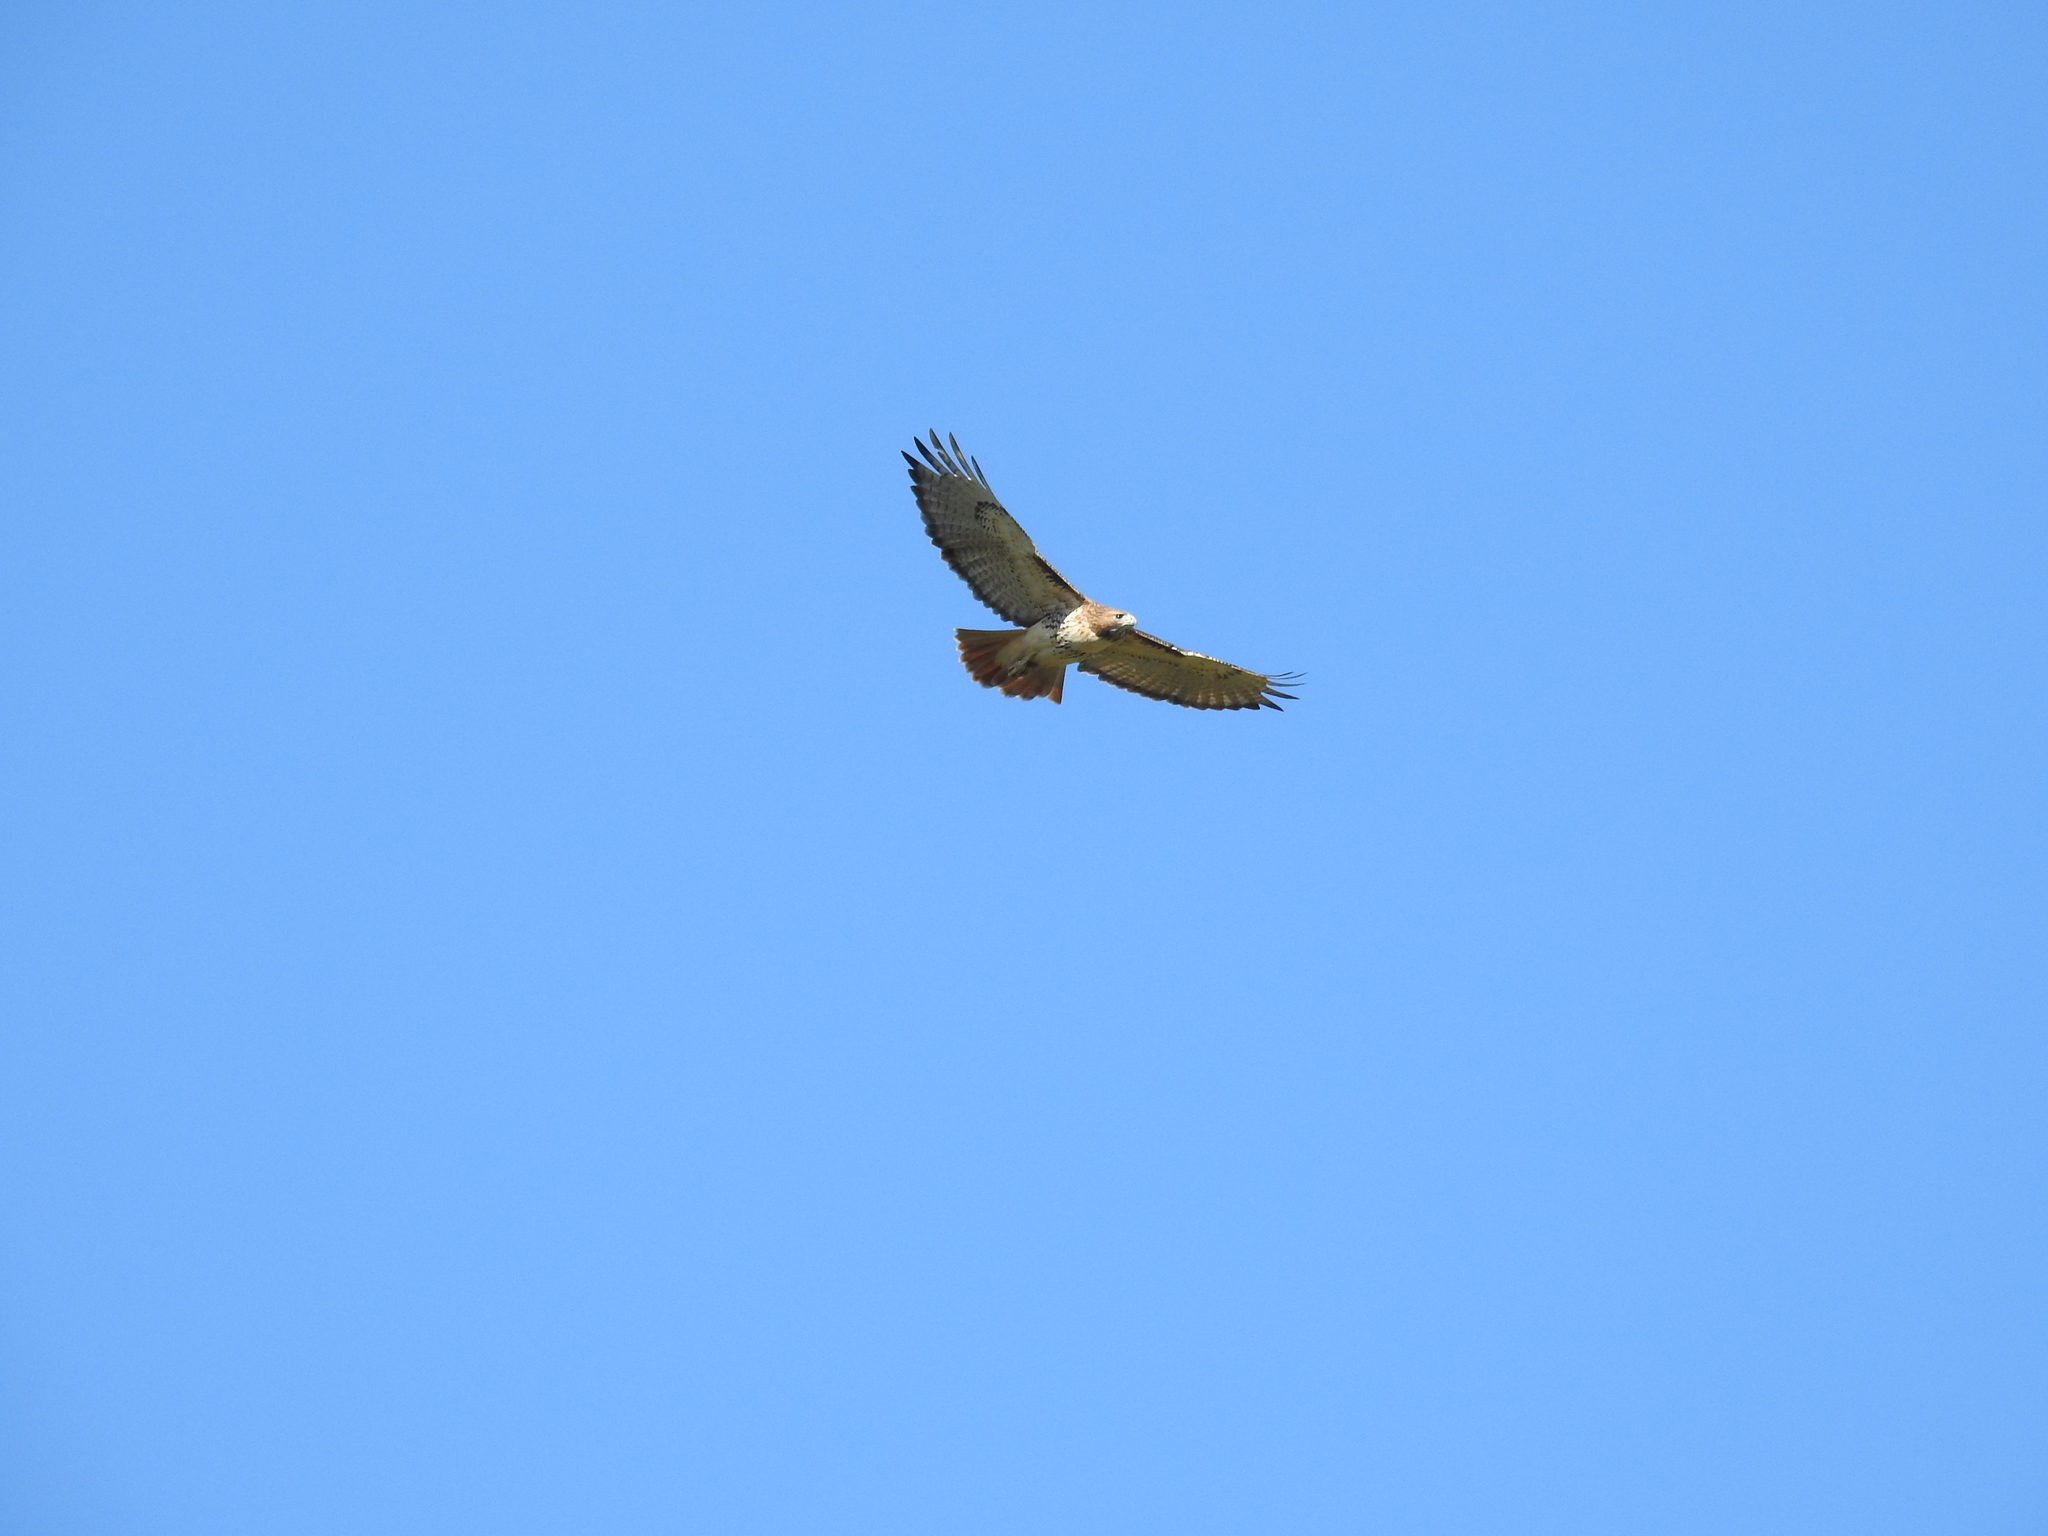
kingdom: Animalia
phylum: Chordata
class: Aves
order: Accipitriformes
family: Accipitridae
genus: Buteo
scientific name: Buteo jamaicensis
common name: Red-tailed hawk
